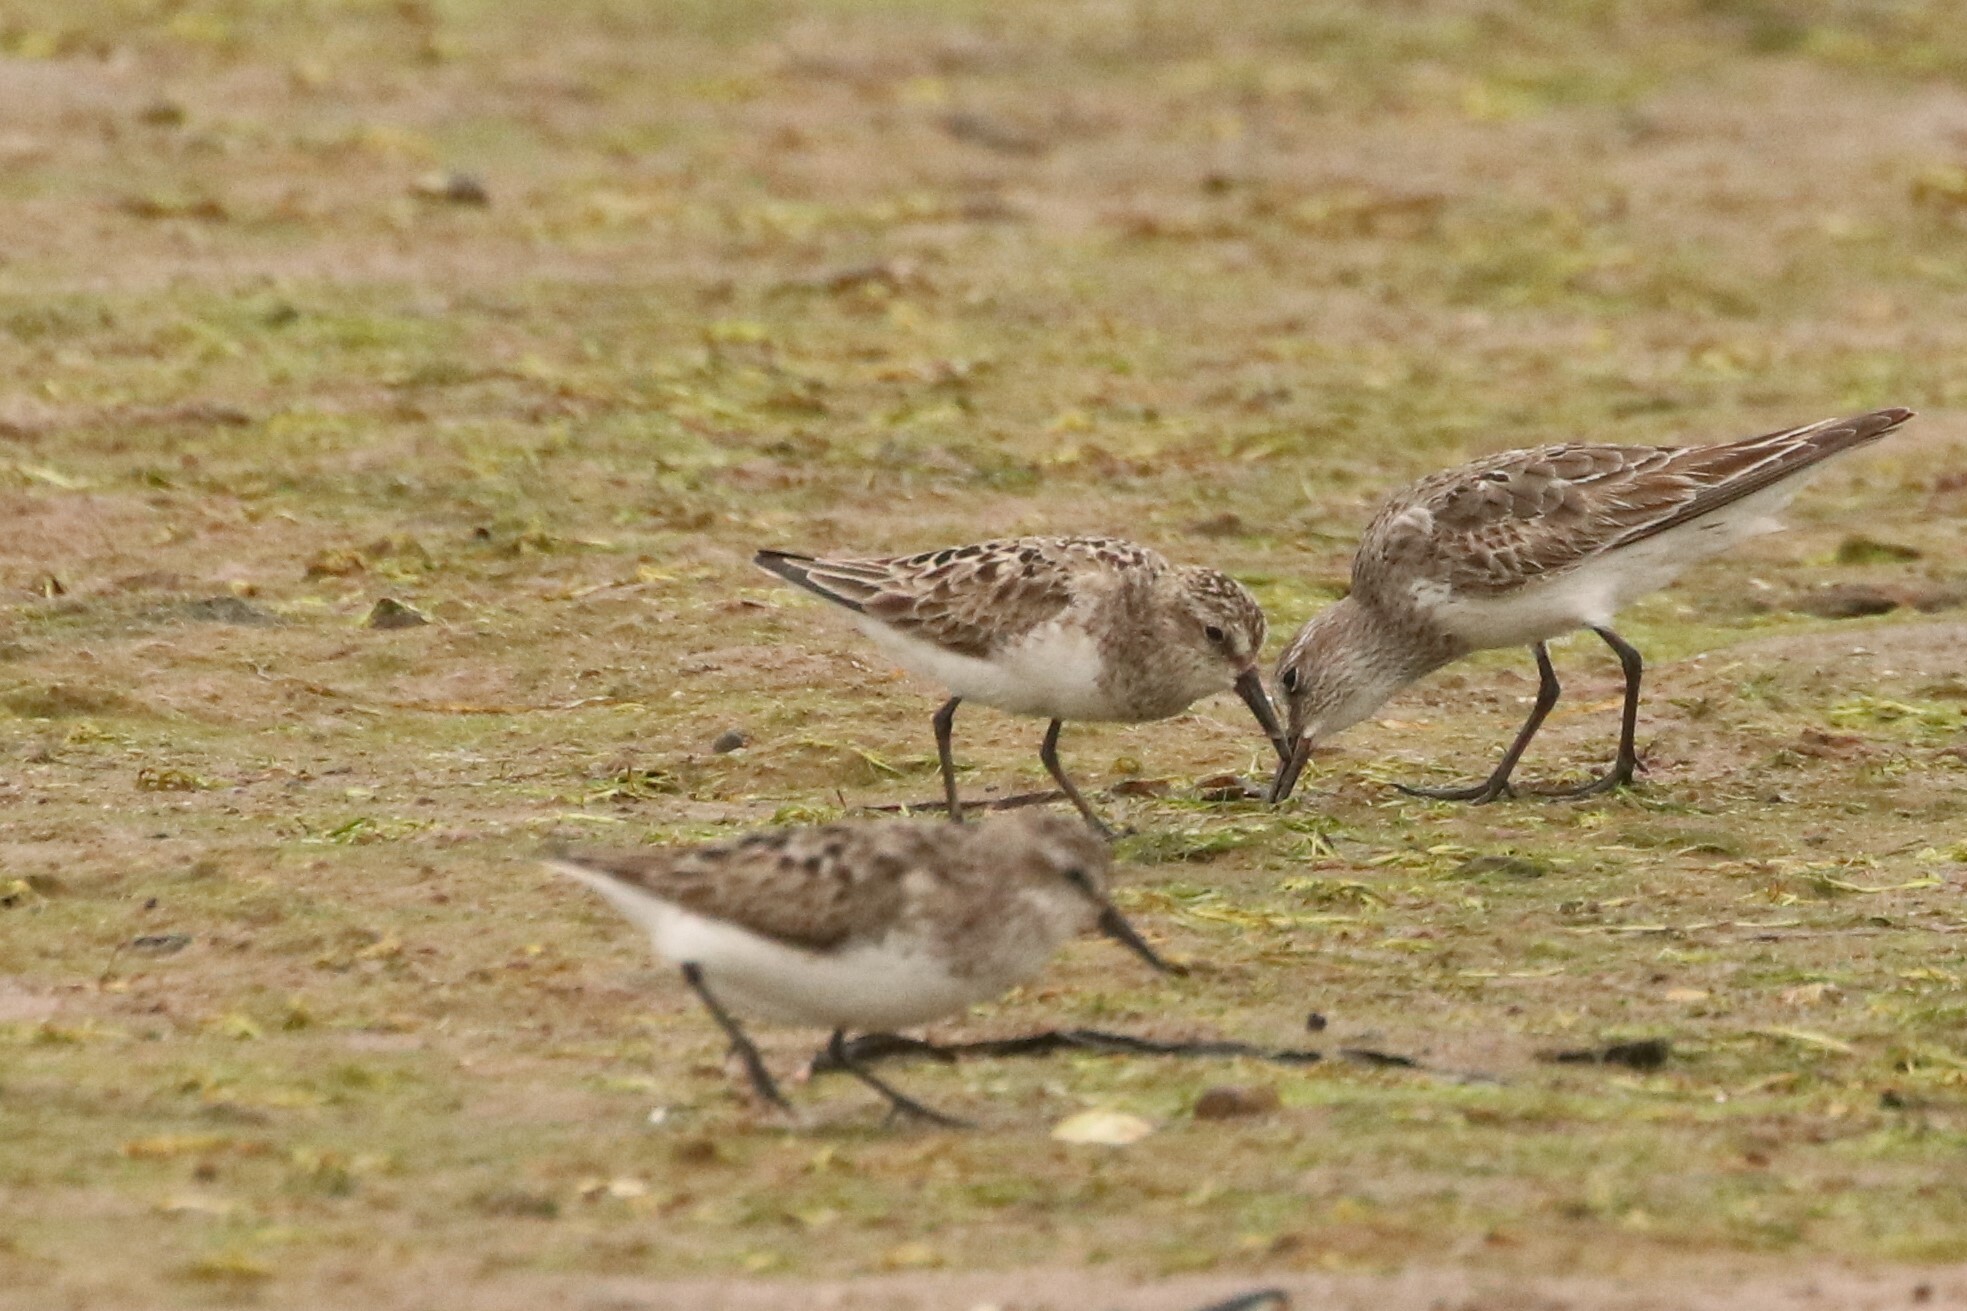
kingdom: Animalia
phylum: Chordata
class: Aves
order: Charadriiformes
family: Scolopacidae
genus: Calidris
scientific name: Calidris pusilla
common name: Semipalmated sandpiper
